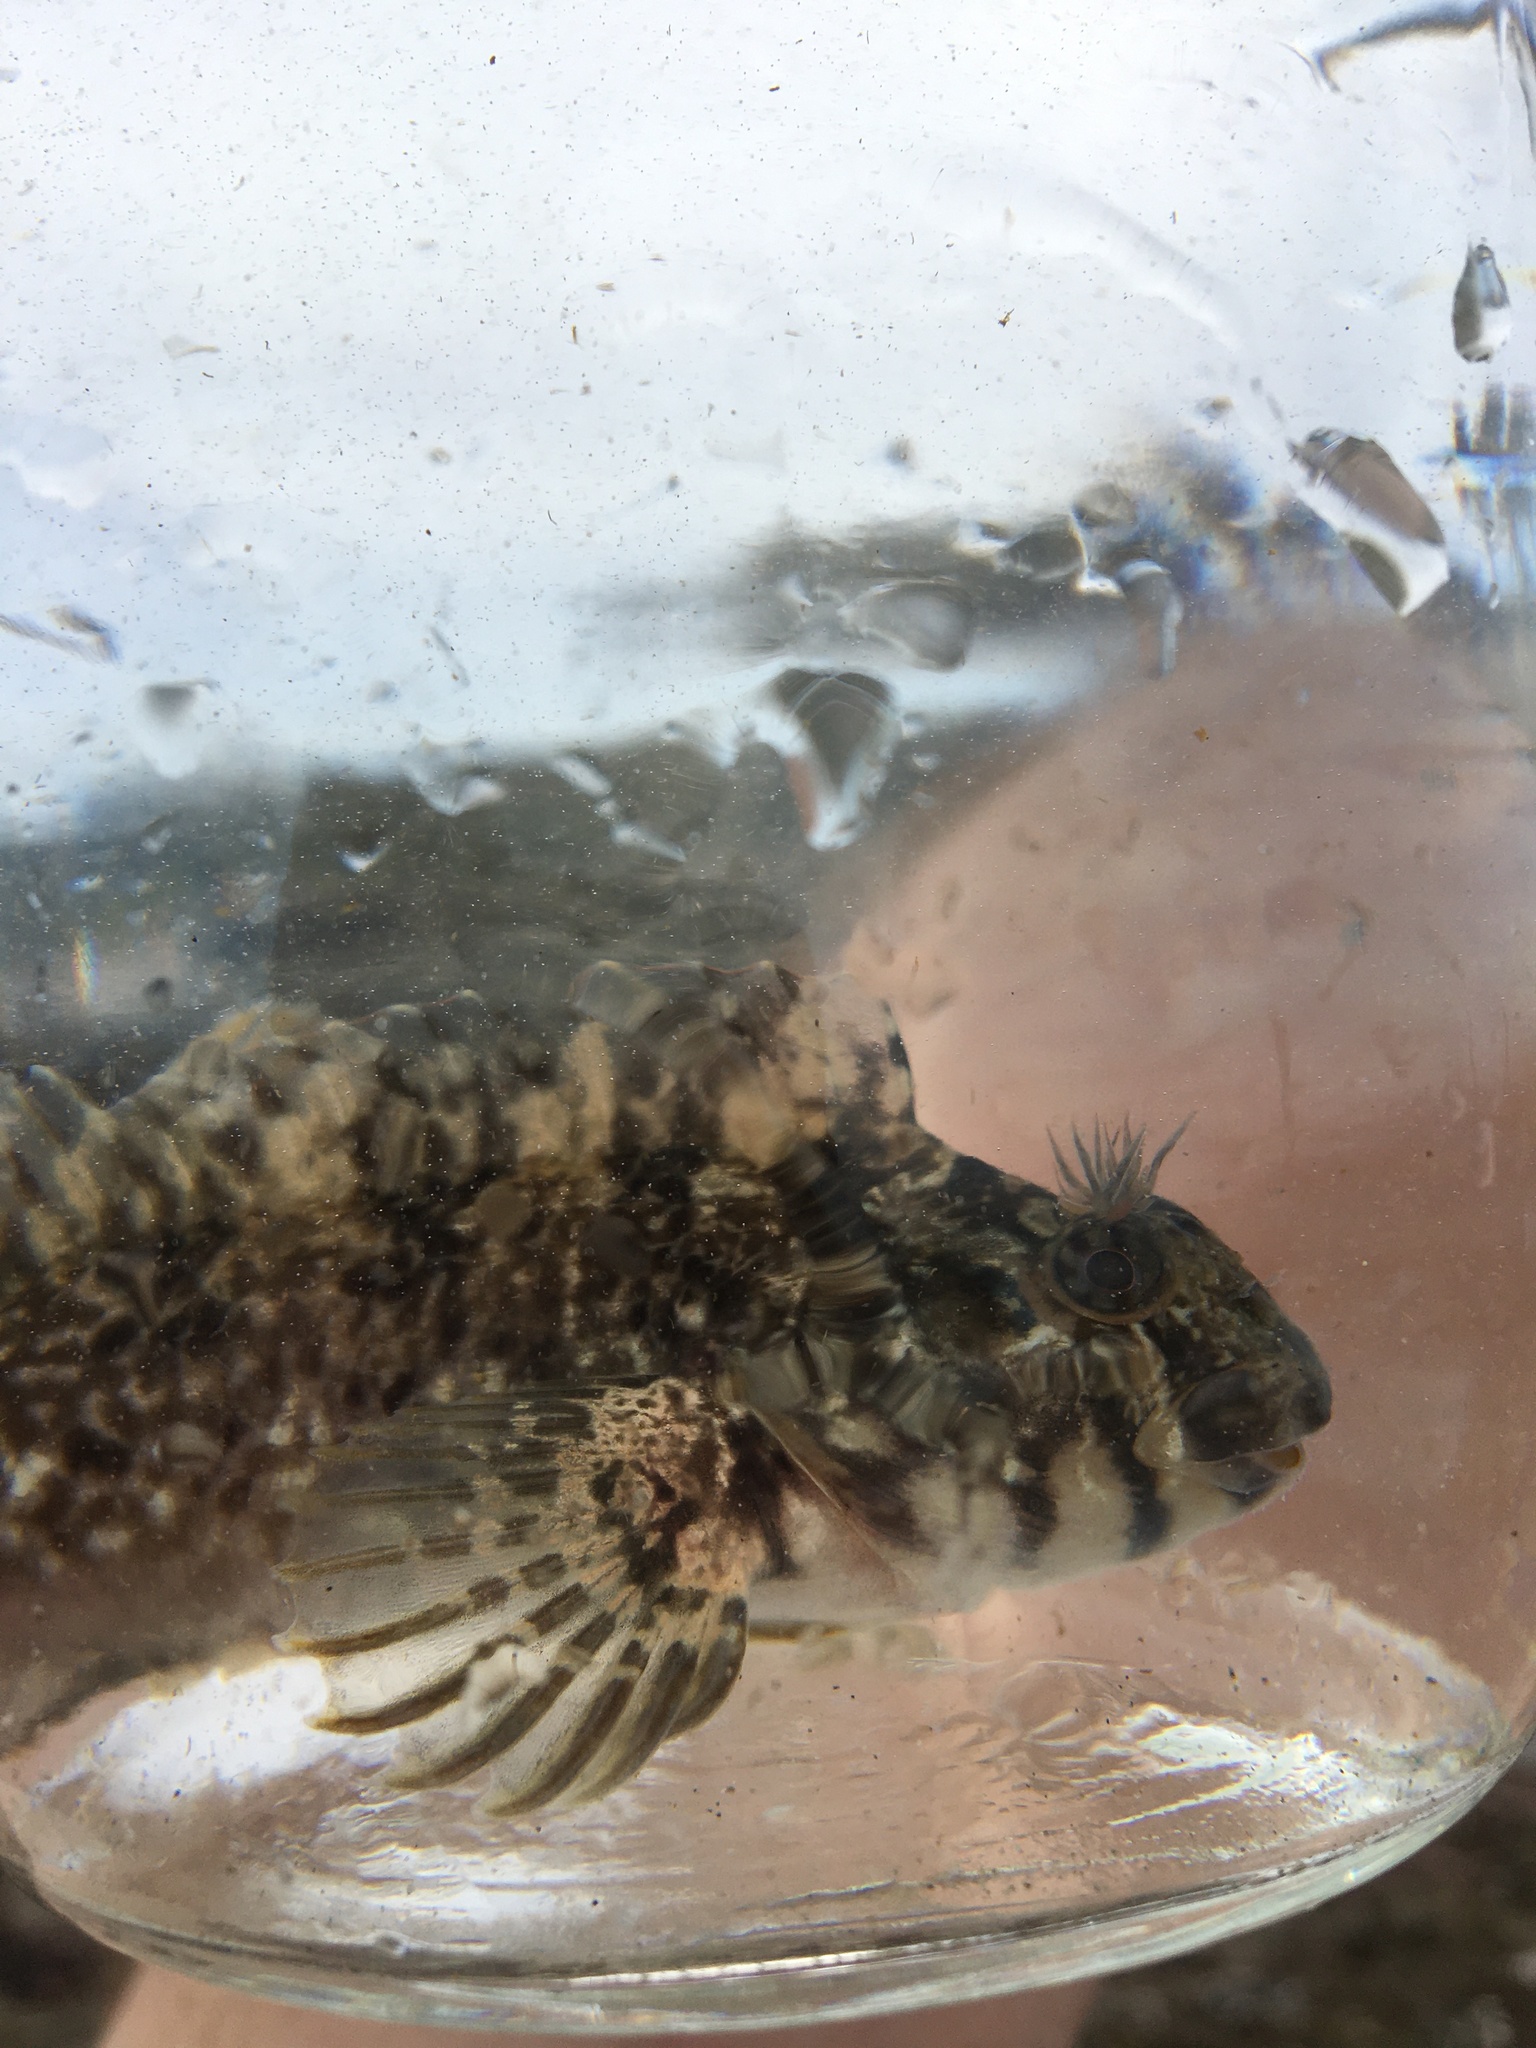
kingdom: Animalia
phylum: Chordata
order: Perciformes
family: Blenniidae
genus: Hypsoblennius
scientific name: Hypsoblennius gilberti
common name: Notchbrow blenny
